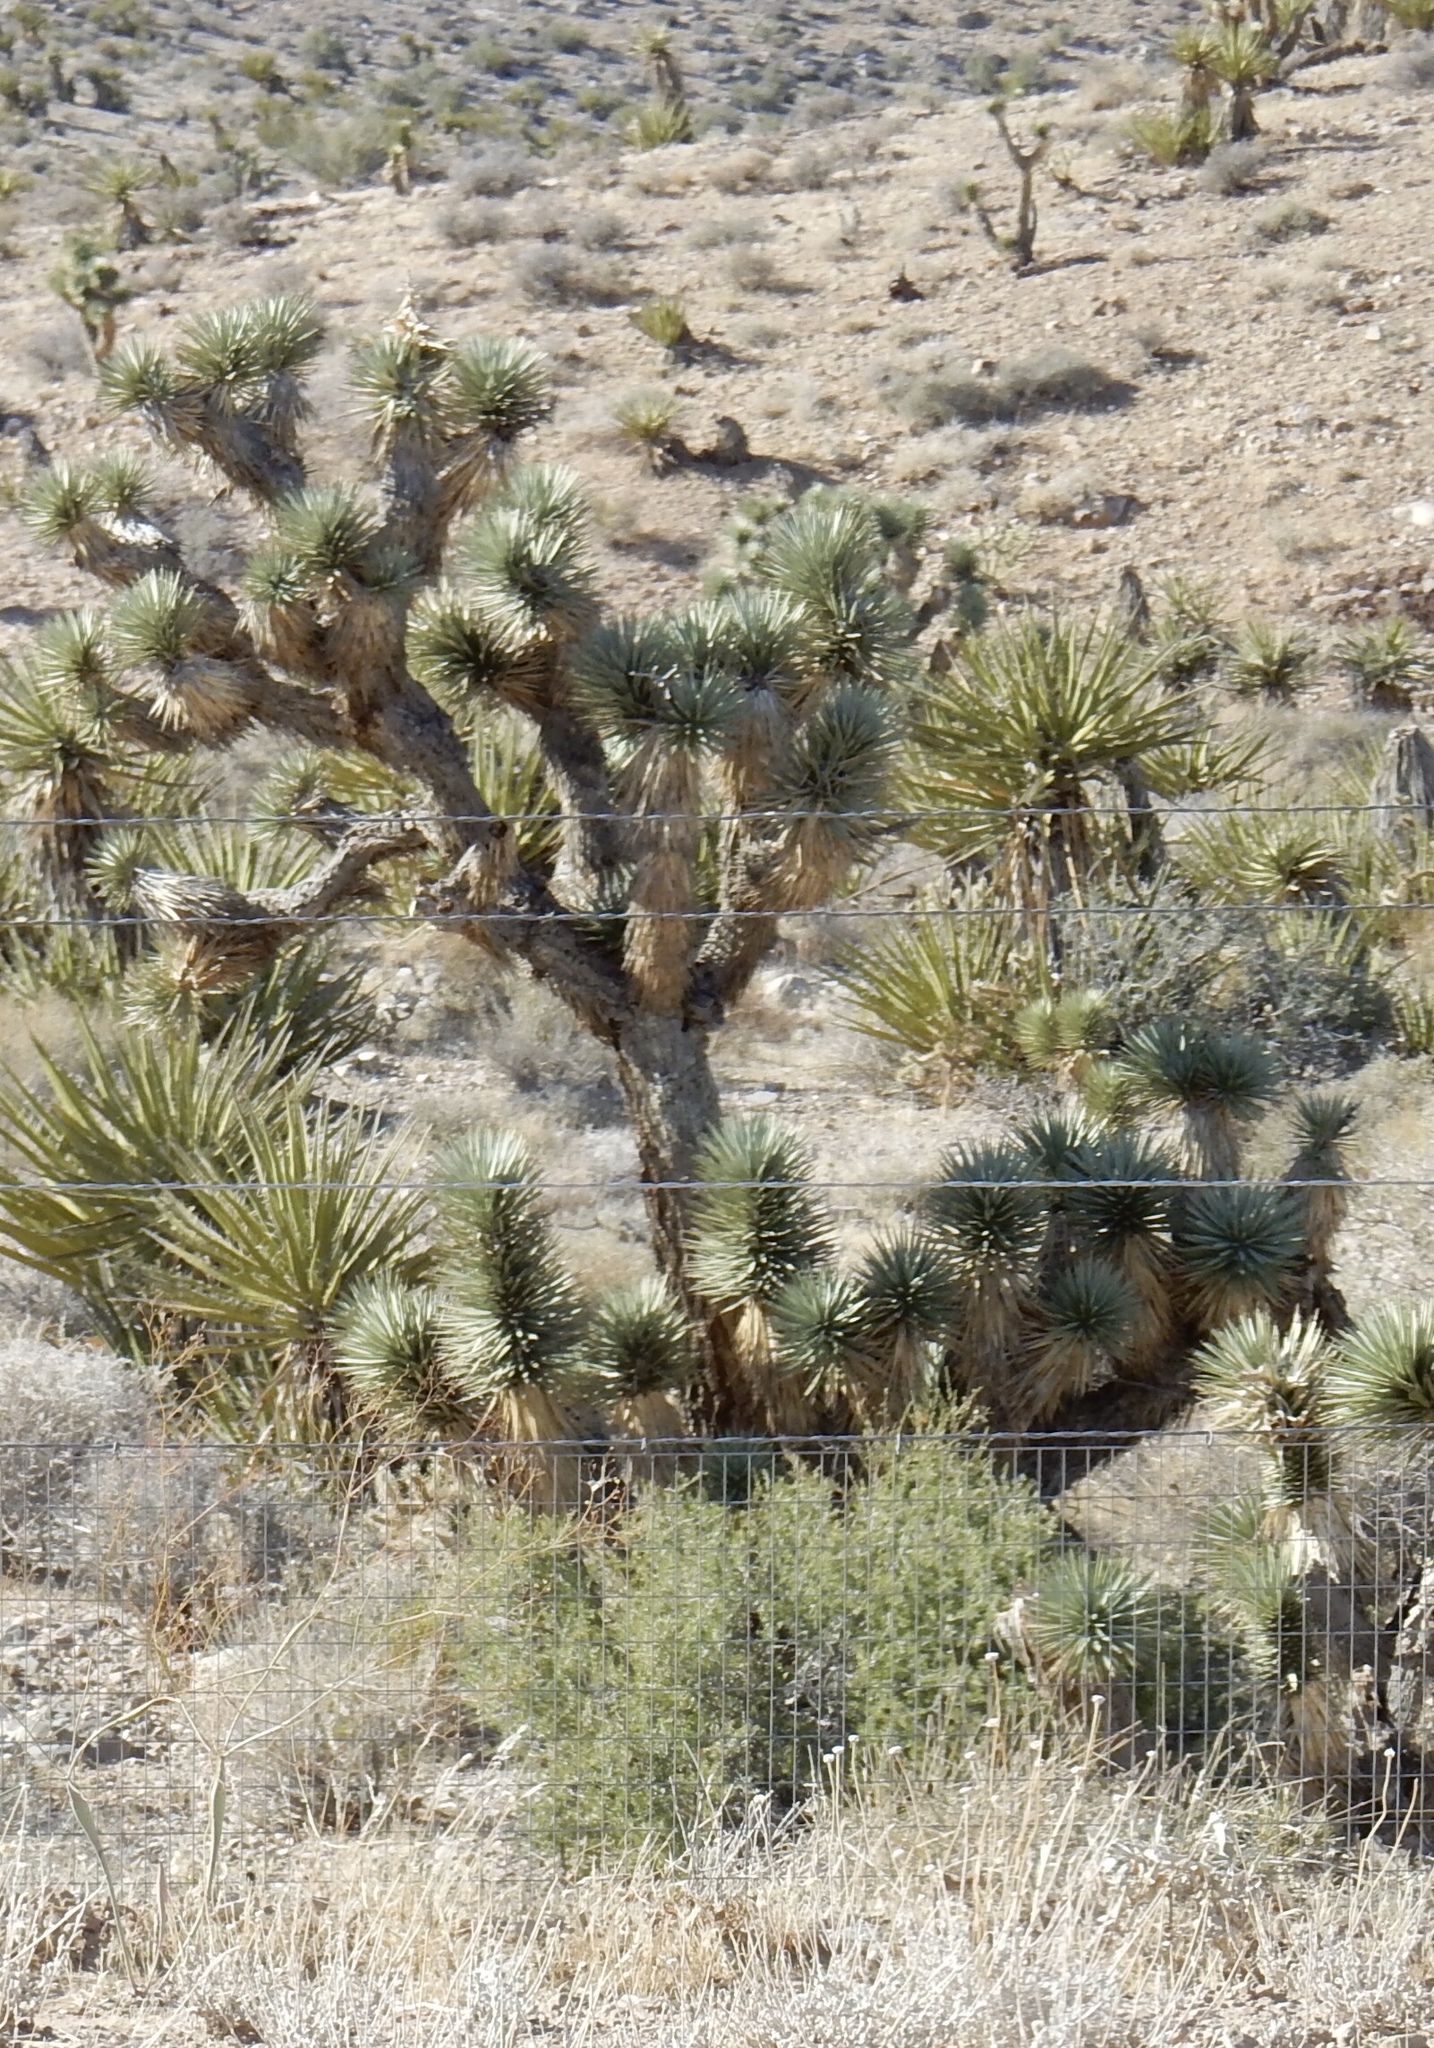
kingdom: Plantae
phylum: Tracheophyta
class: Liliopsida
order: Asparagales
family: Asparagaceae
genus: Yucca
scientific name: Yucca brevifolia
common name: Joshua tree
